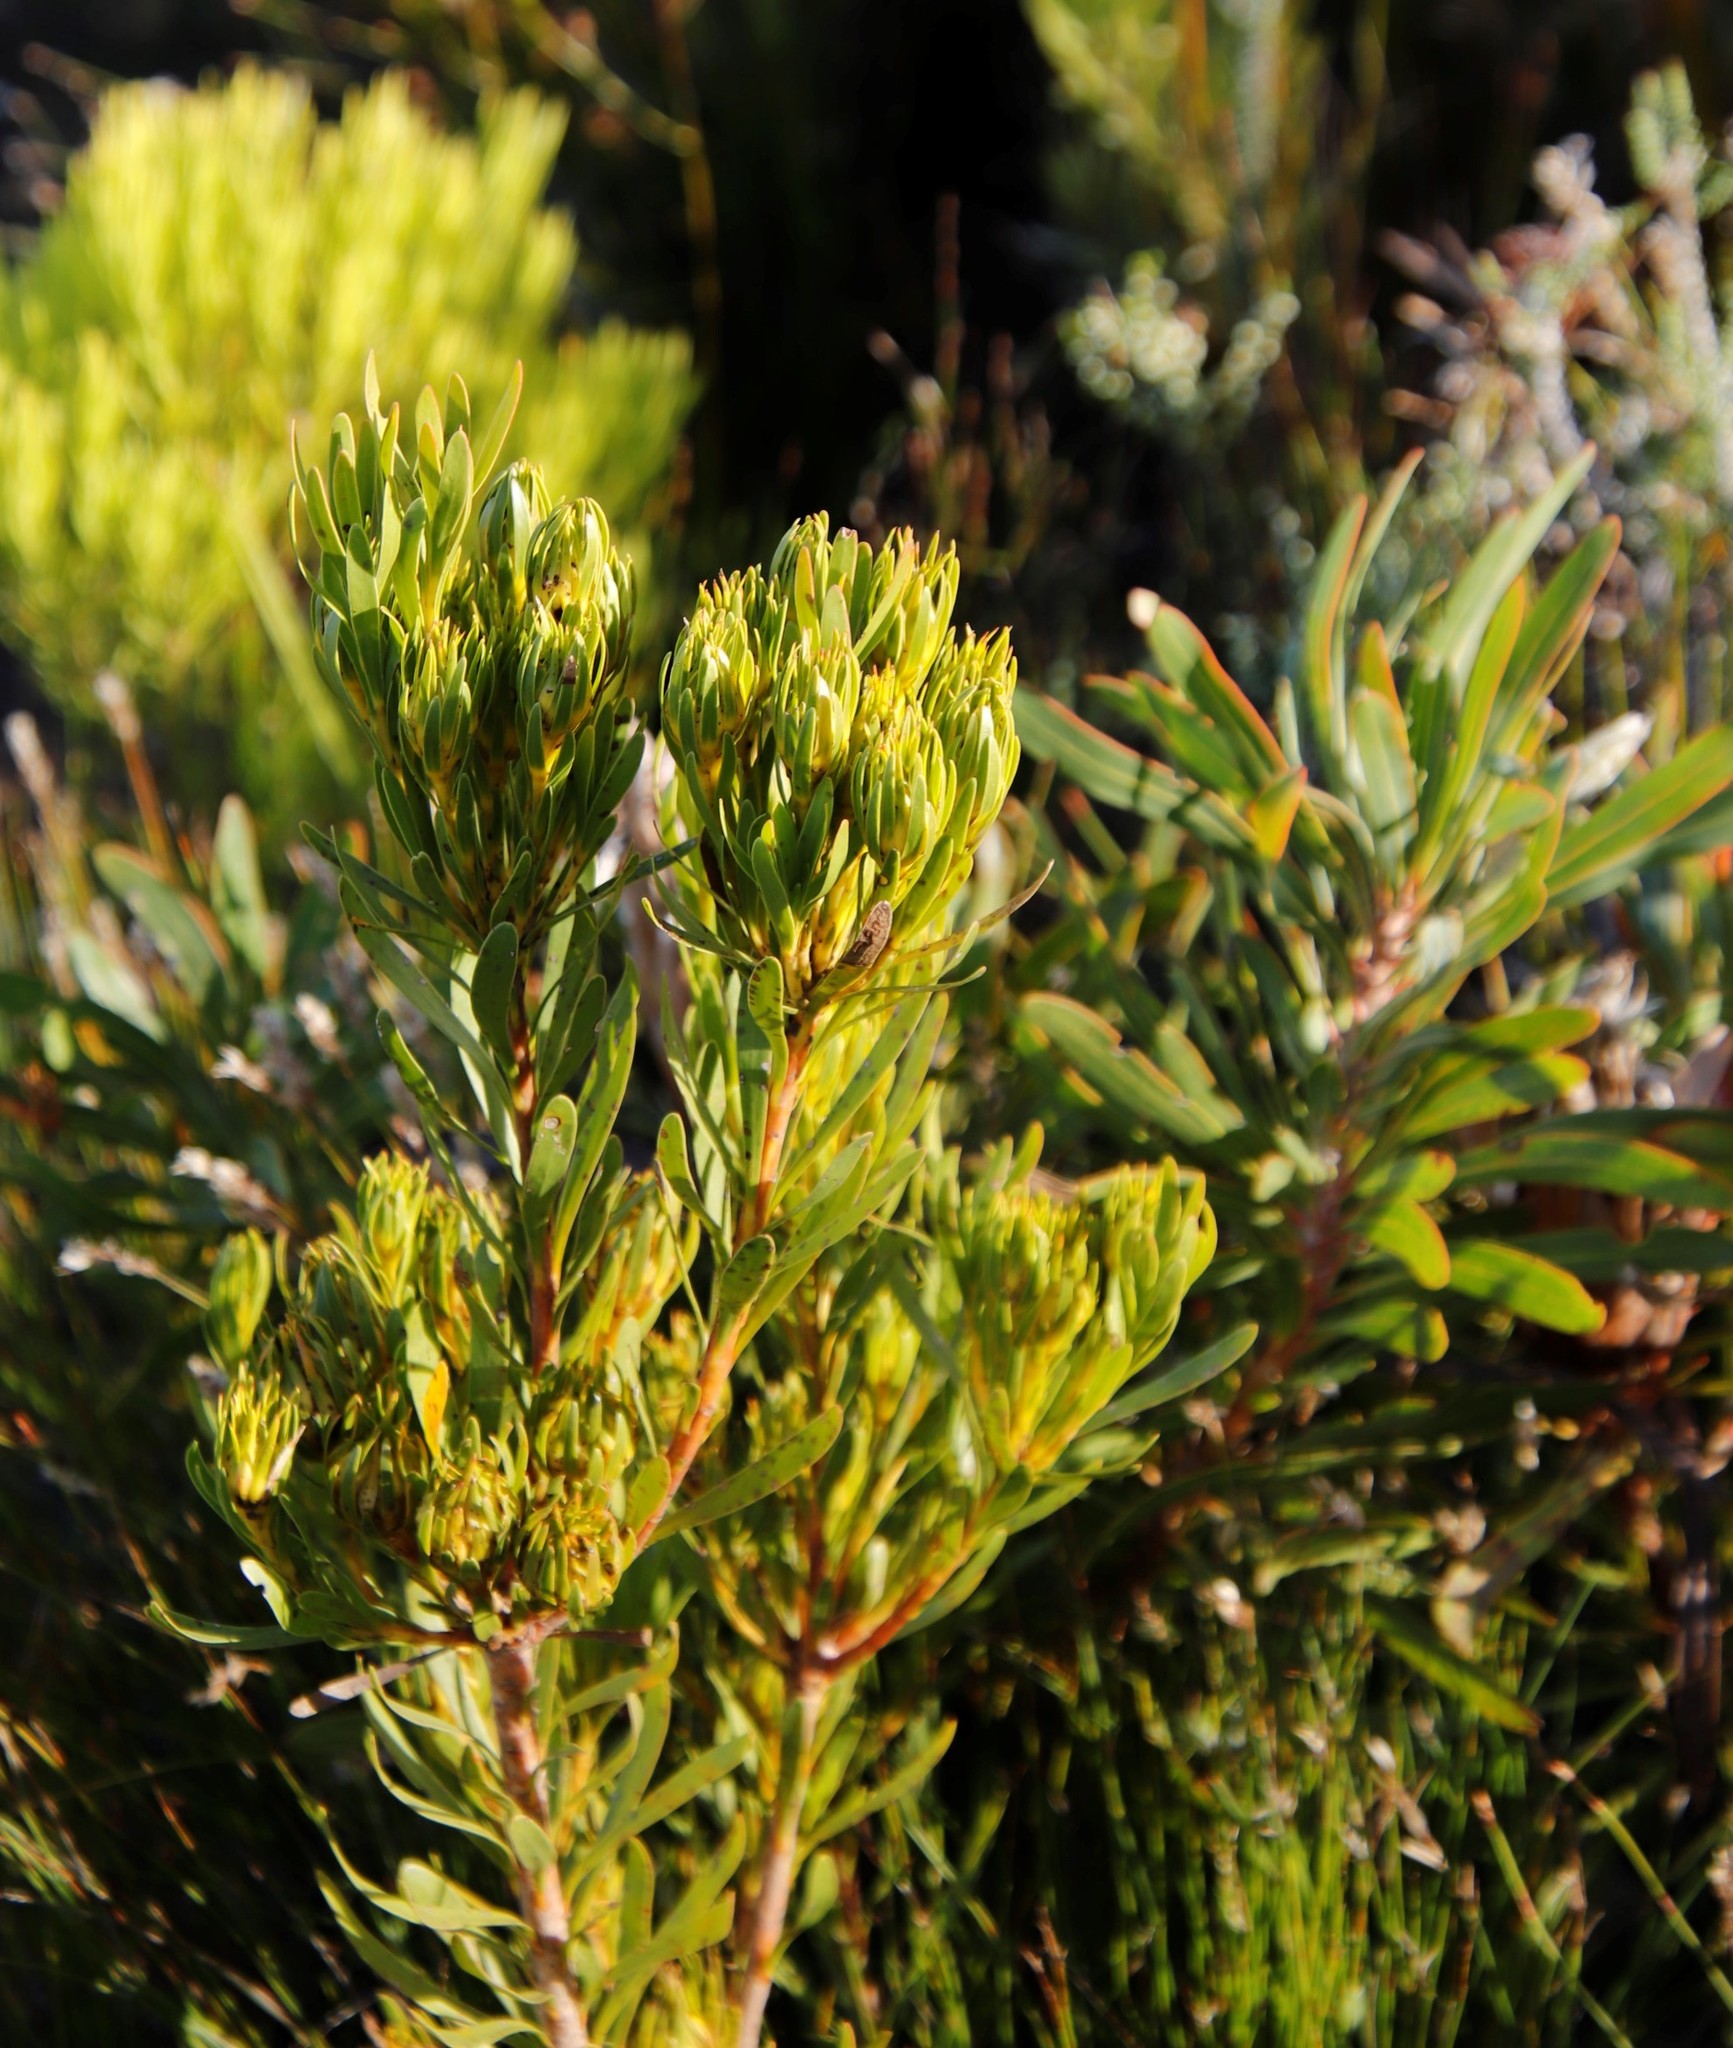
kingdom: Plantae
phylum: Tracheophyta
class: Magnoliopsida
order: Proteales
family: Proteaceae
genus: Aulax
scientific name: Aulax umbellata
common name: Broad-leaf featherbush
